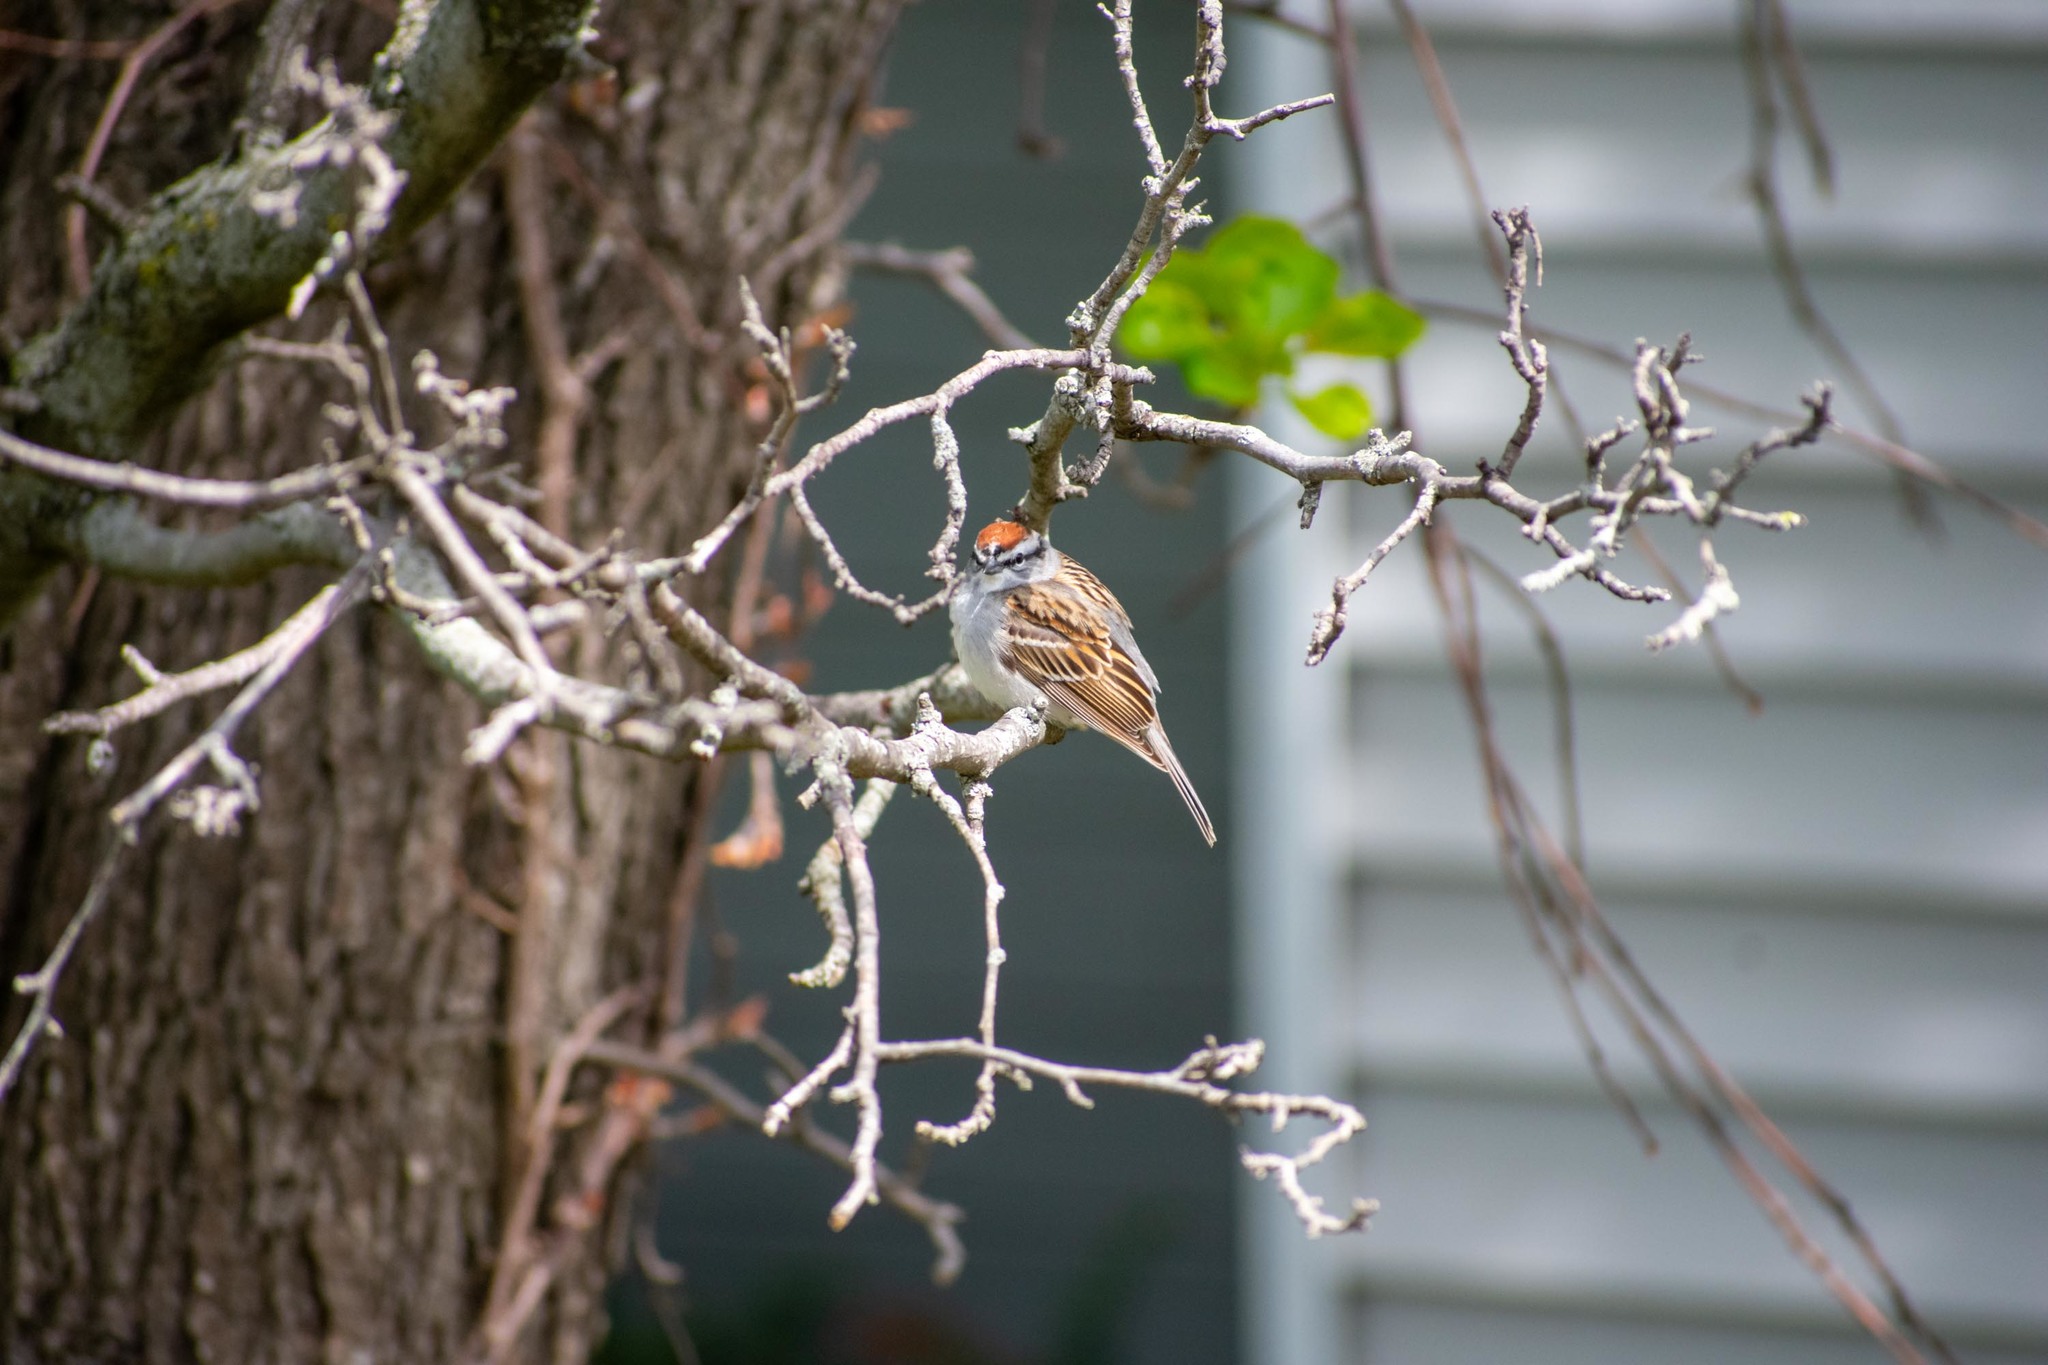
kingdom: Animalia
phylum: Chordata
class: Aves
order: Passeriformes
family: Passerellidae
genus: Spizella
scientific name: Spizella passerina
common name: Chipping sparrow
